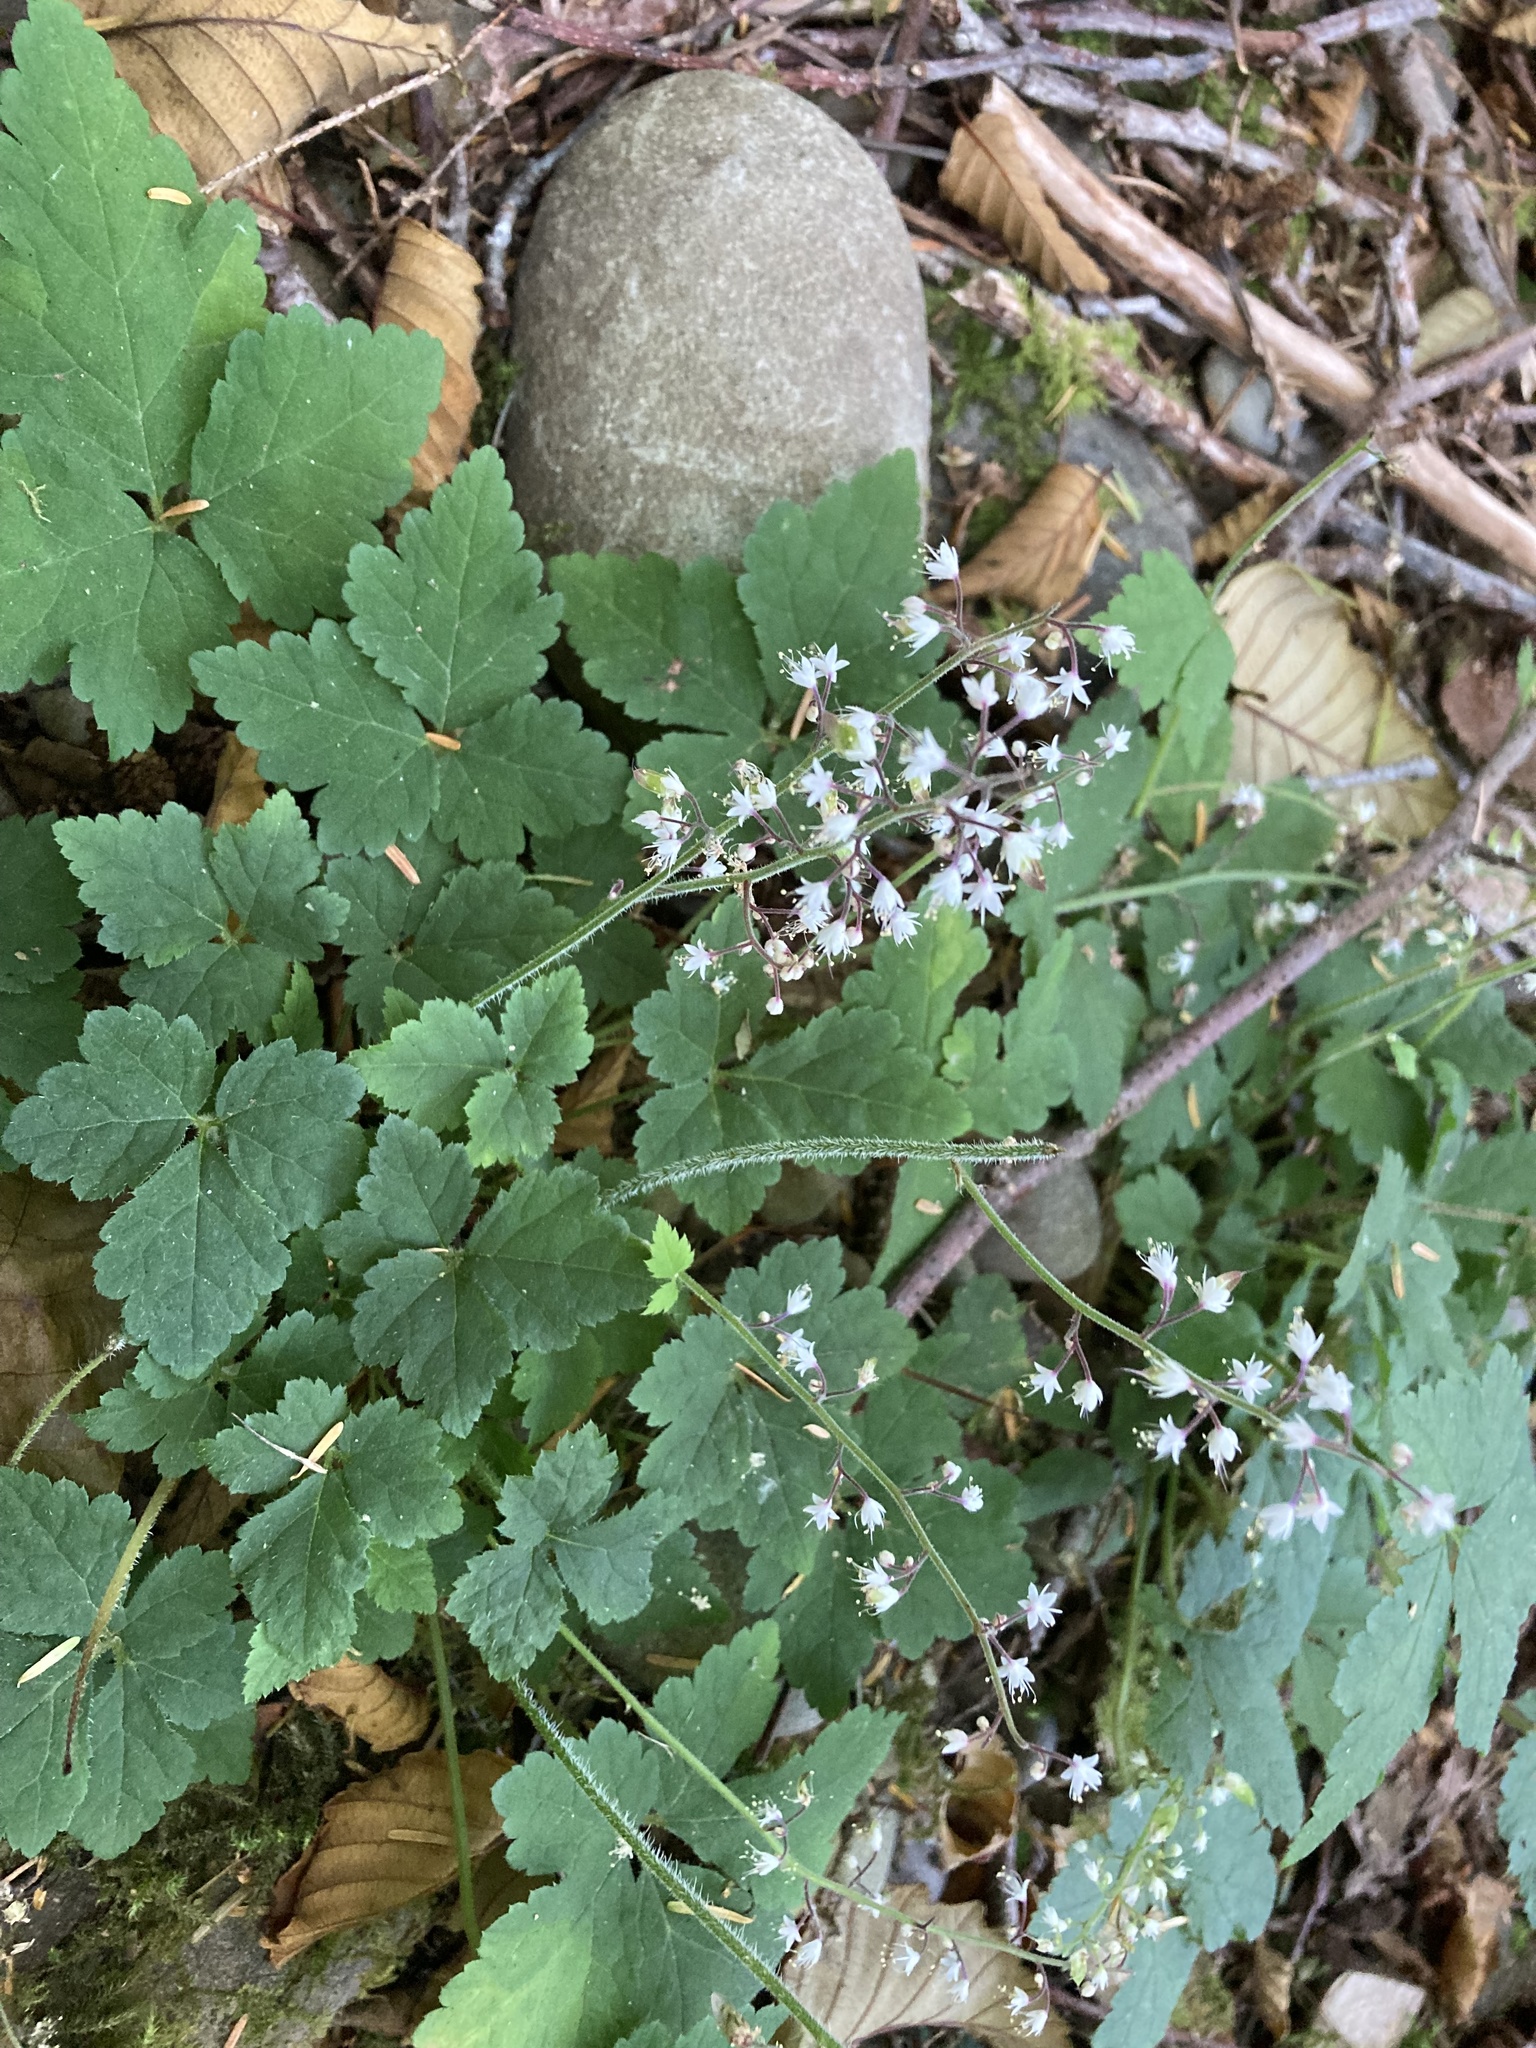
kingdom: Plantae
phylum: Tracheophyta
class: Magnoliopsida
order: Saxifragales
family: Saxifragaceae
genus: Tiarella
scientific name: Tiarella trifoliata
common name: Sugar-scoop
